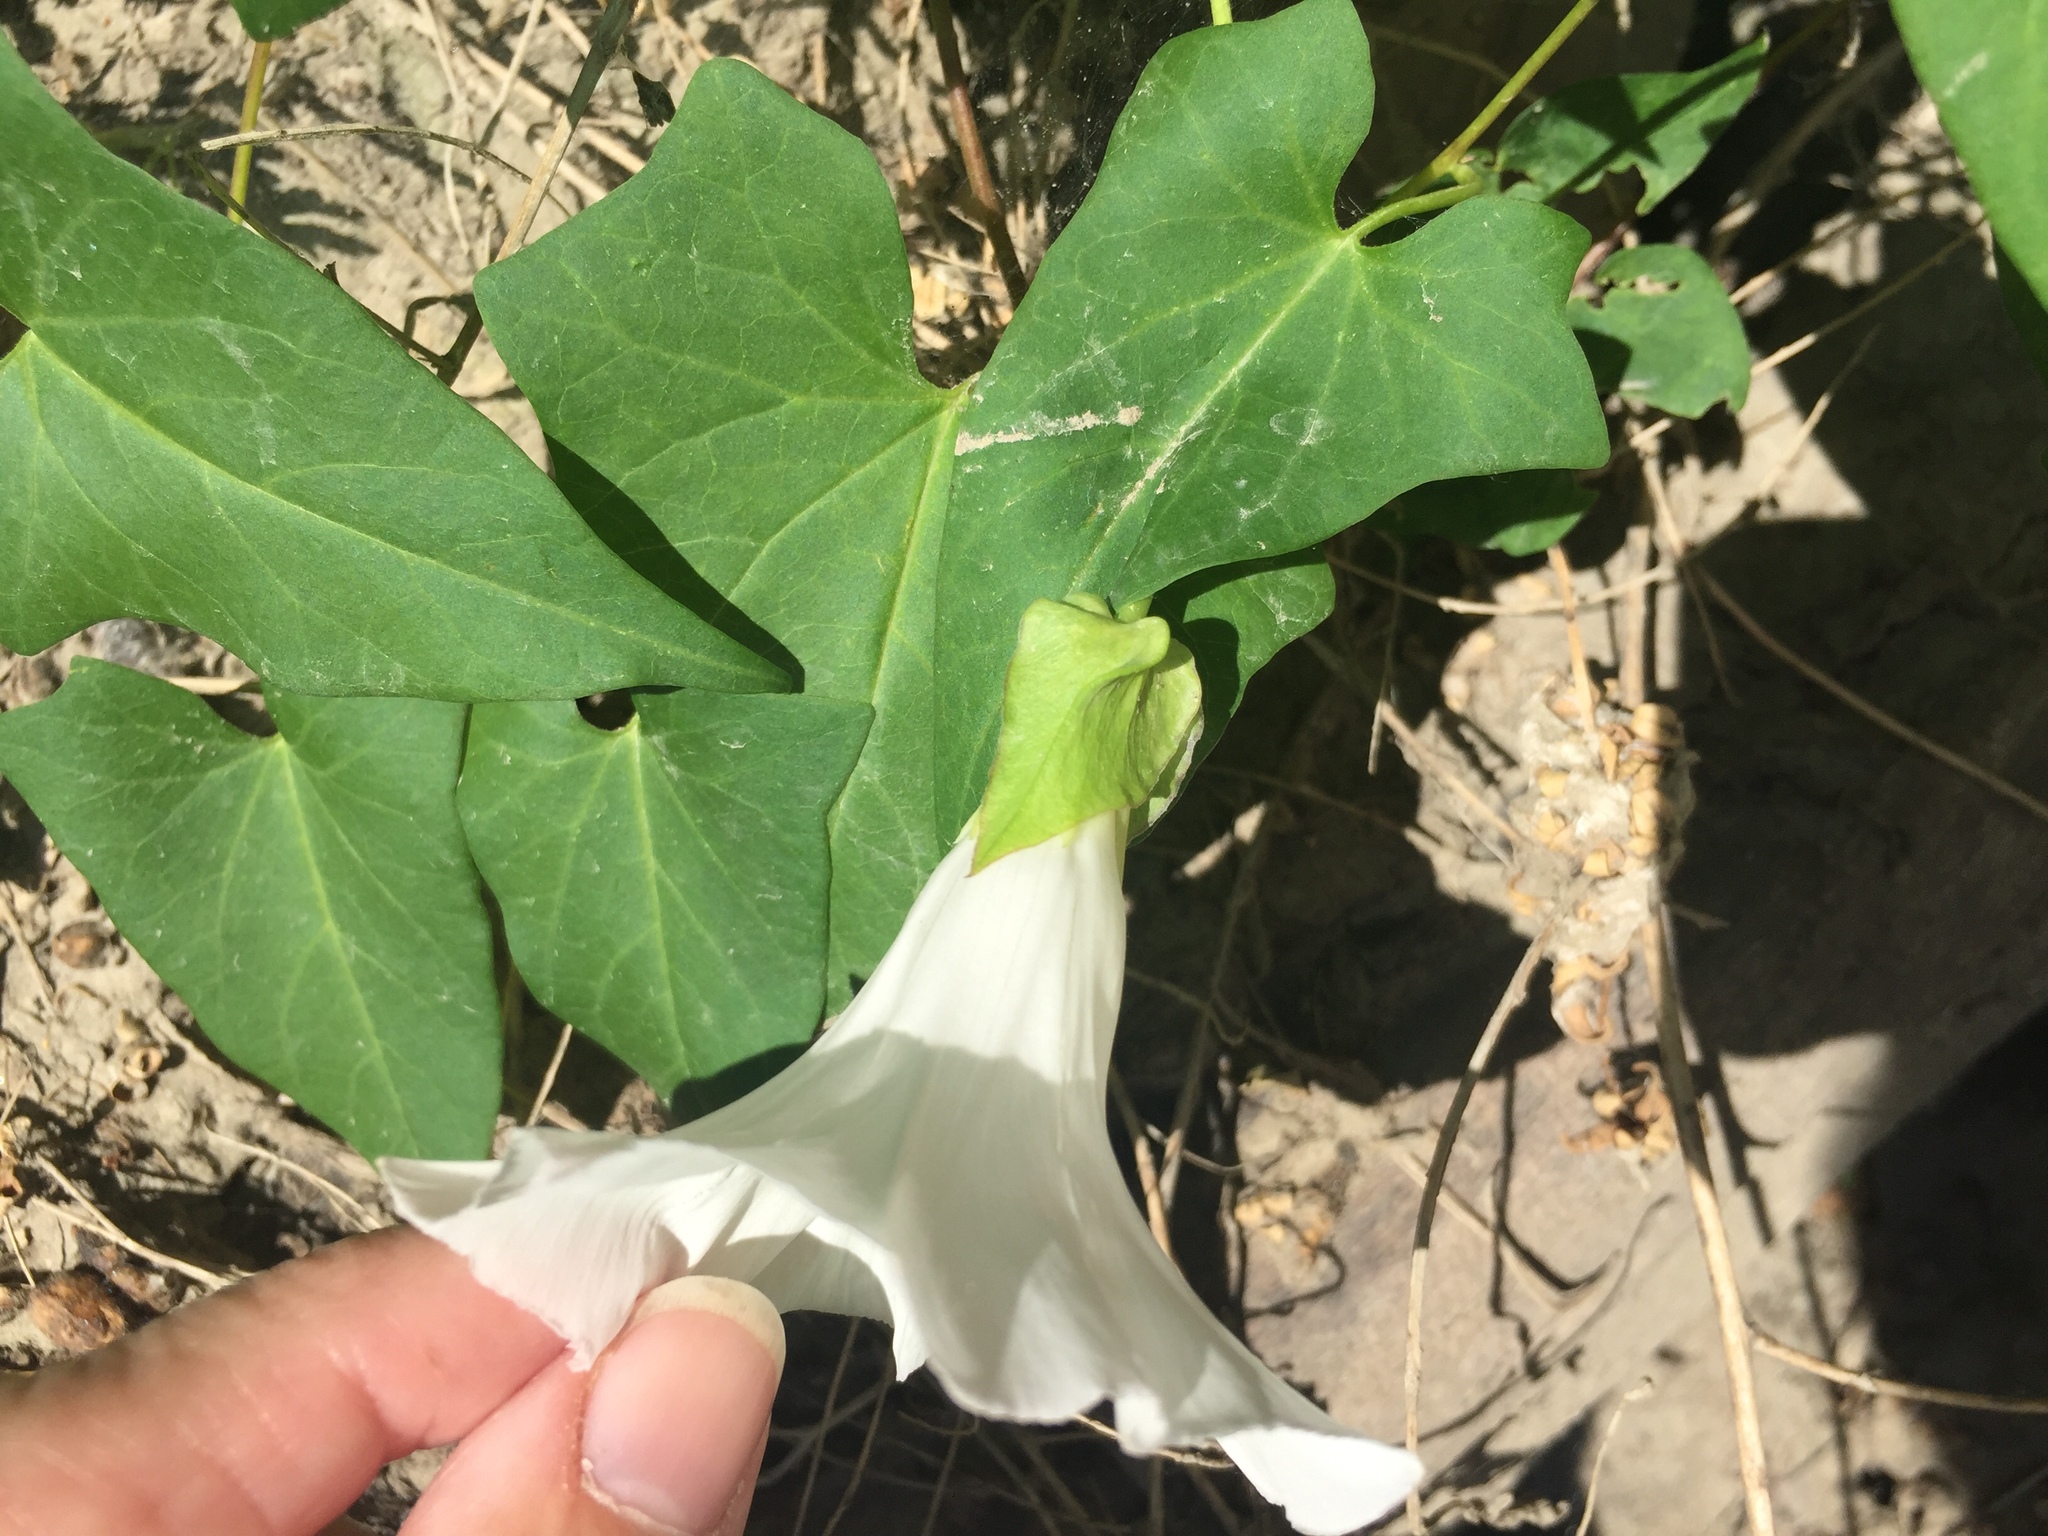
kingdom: Plantae
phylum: Tracheophyta
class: Magnoliopsida
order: Solanales
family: Convolvulaceae
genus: Calystegia
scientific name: Calystegia sepium
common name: Hedge bindweed
